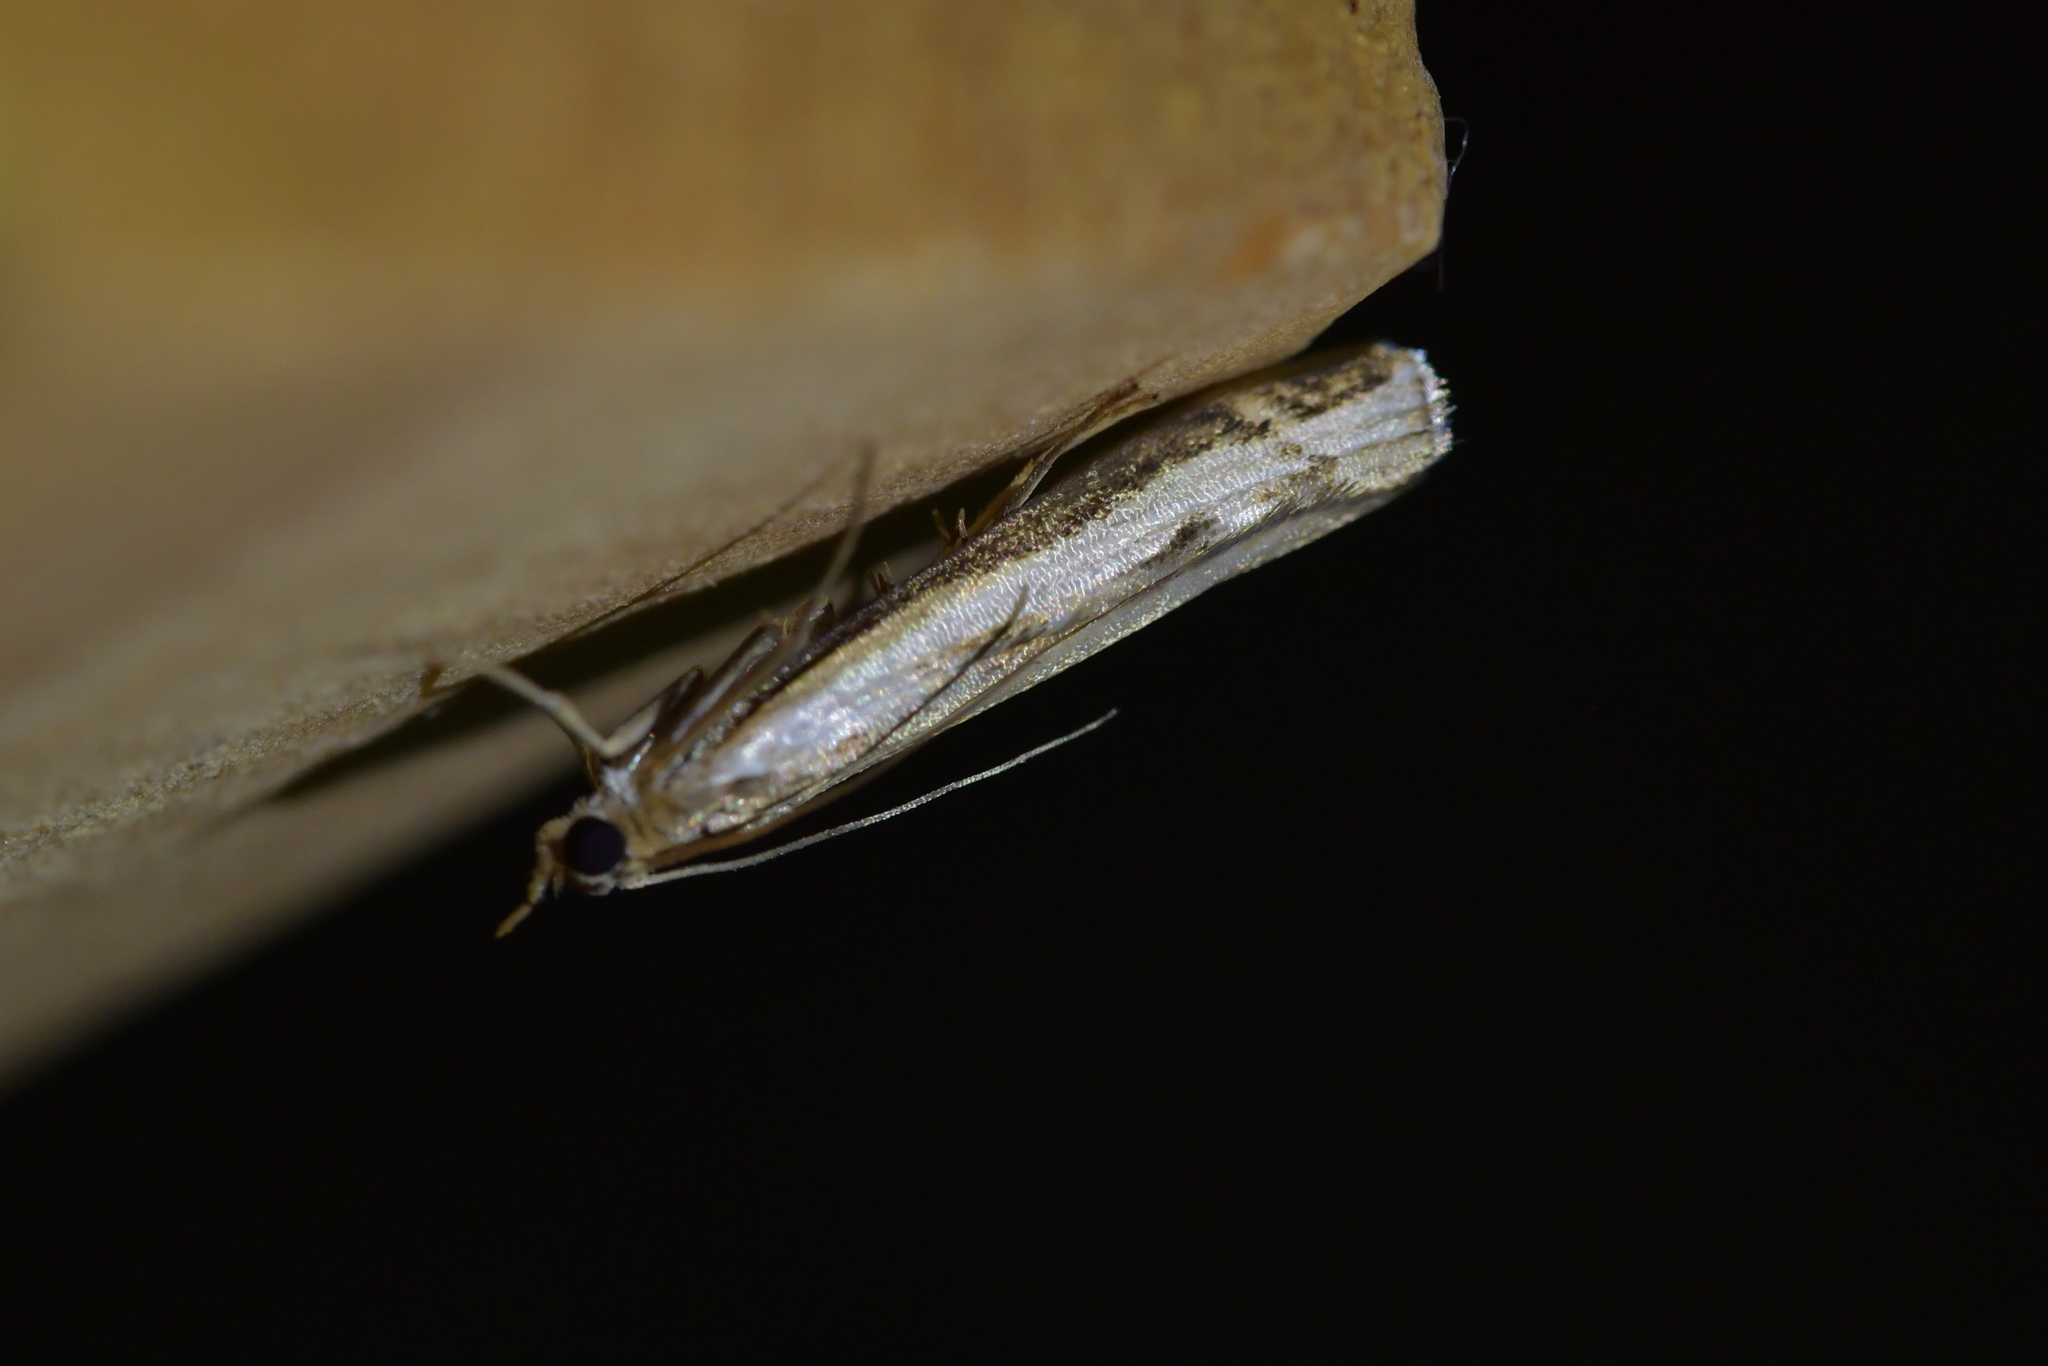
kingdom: Animalia
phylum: Arthropoda
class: Insecta
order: Lepidoptera
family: Crambidae
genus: Orocrambus
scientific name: Orocrambus flexuosellus
